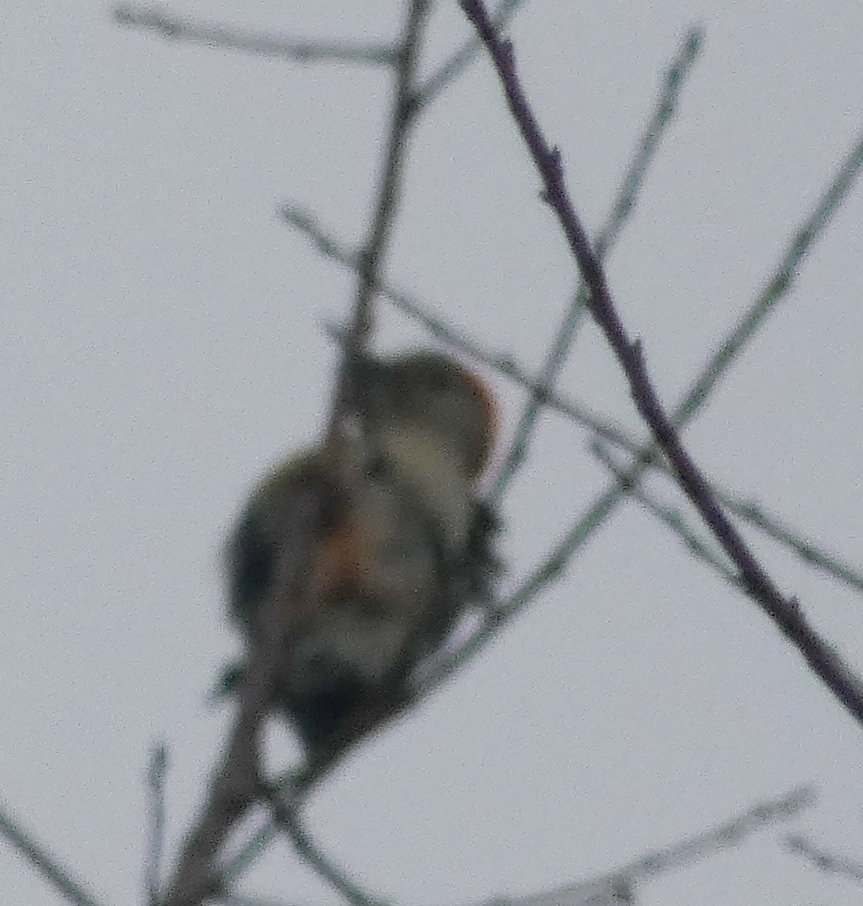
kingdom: Animalia
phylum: Chordata
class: Aves
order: Piciformes
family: Picidae
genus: Melanerpes
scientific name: Melanerpes carolinus
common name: Red-bellied woodpecker
